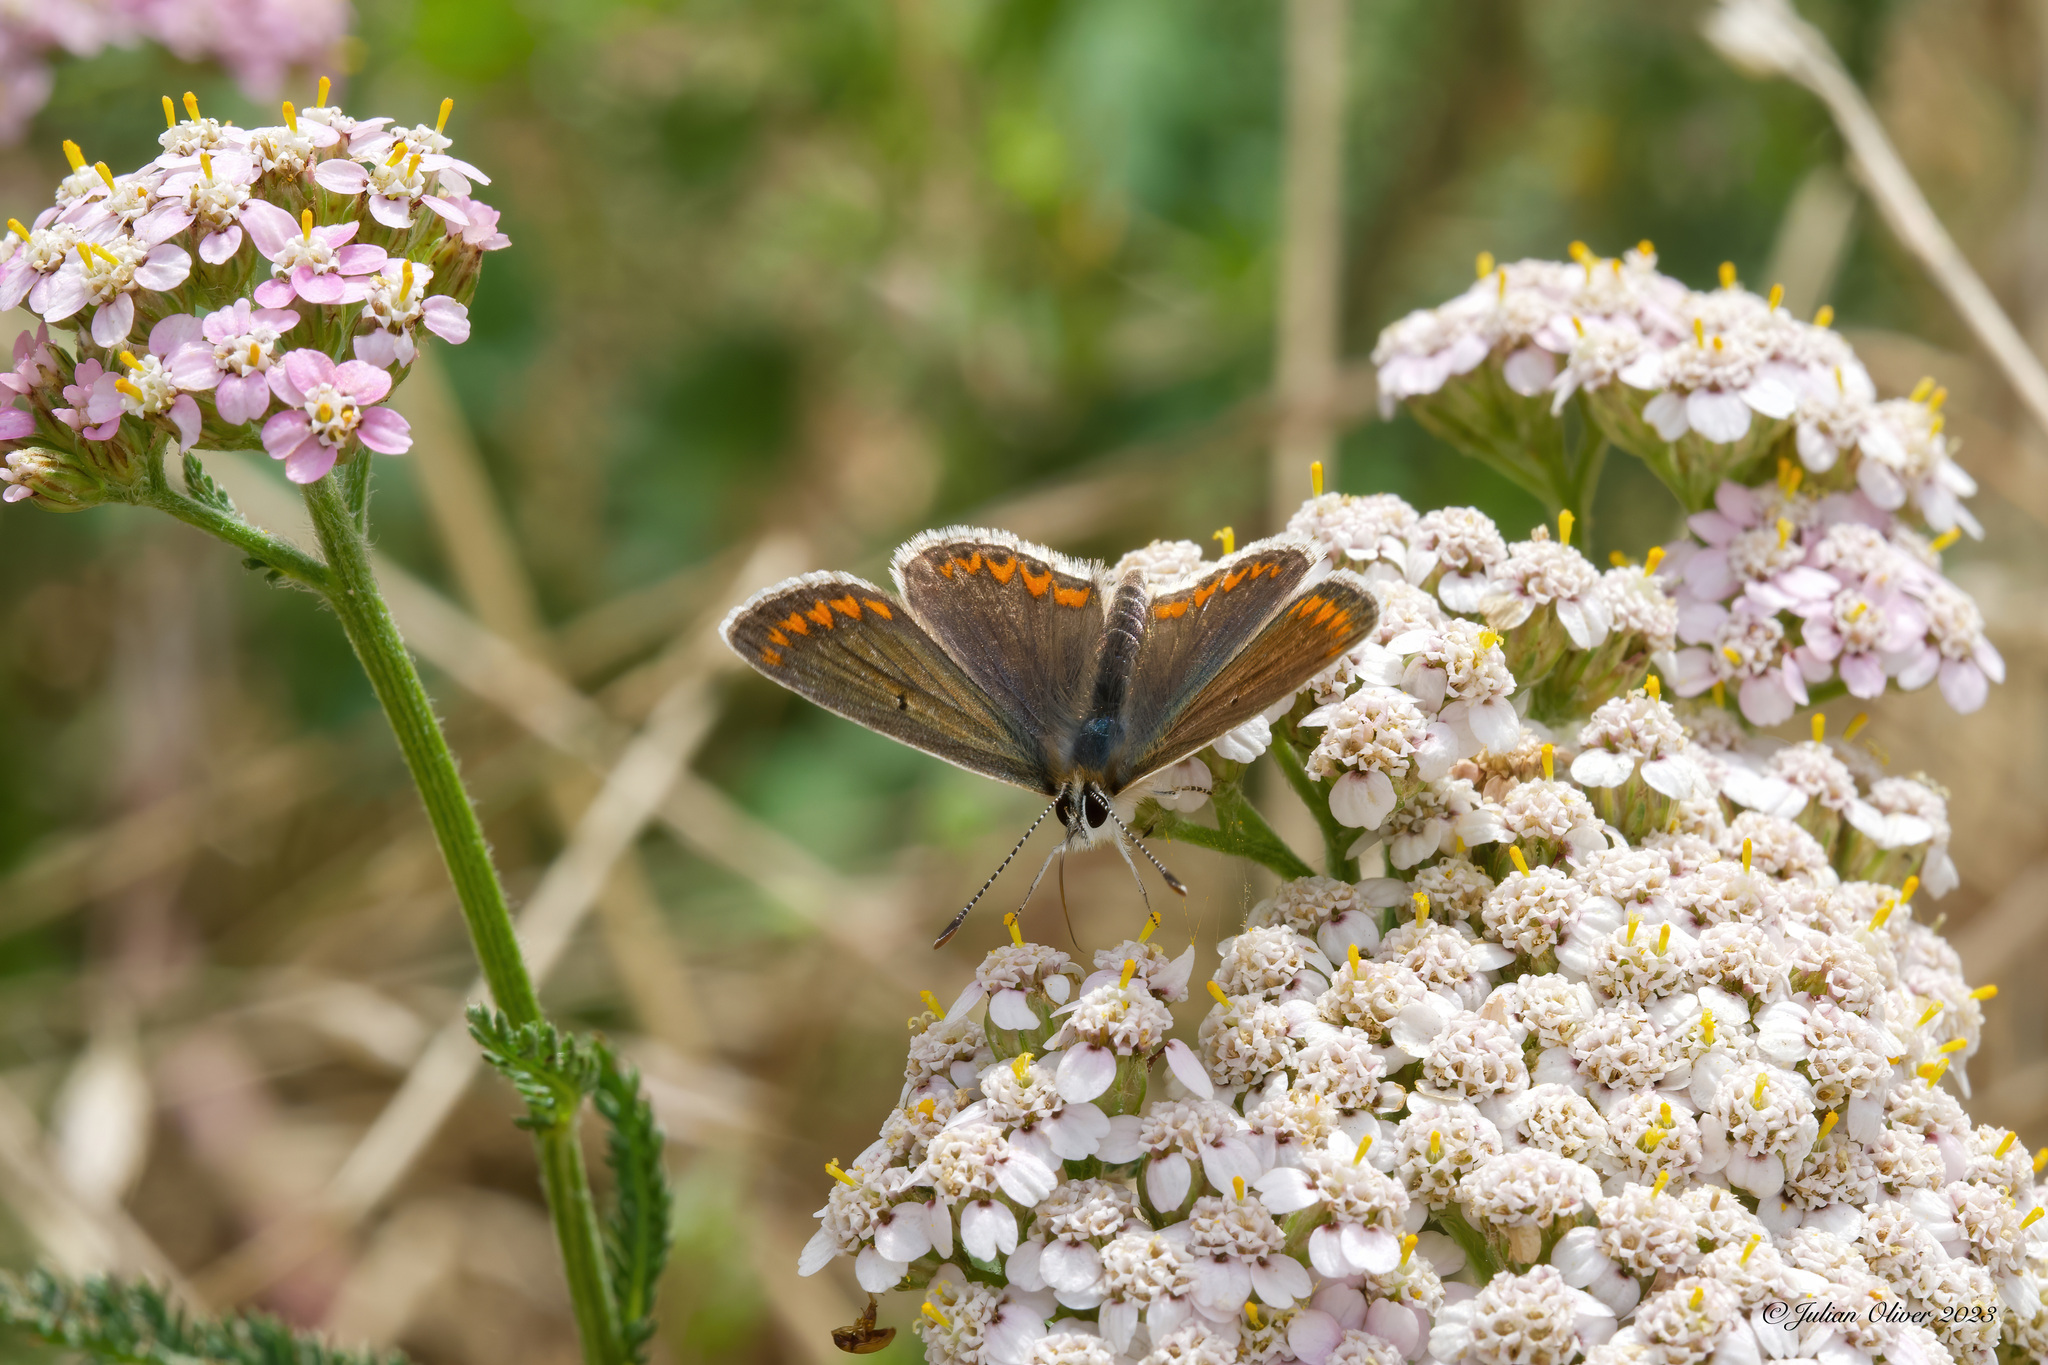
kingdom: Animalia
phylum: Arthropoda
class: Insecta
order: Lepidoptera
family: Lycaenidae
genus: Aricia
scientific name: Aricia agestis
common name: Brown argus
